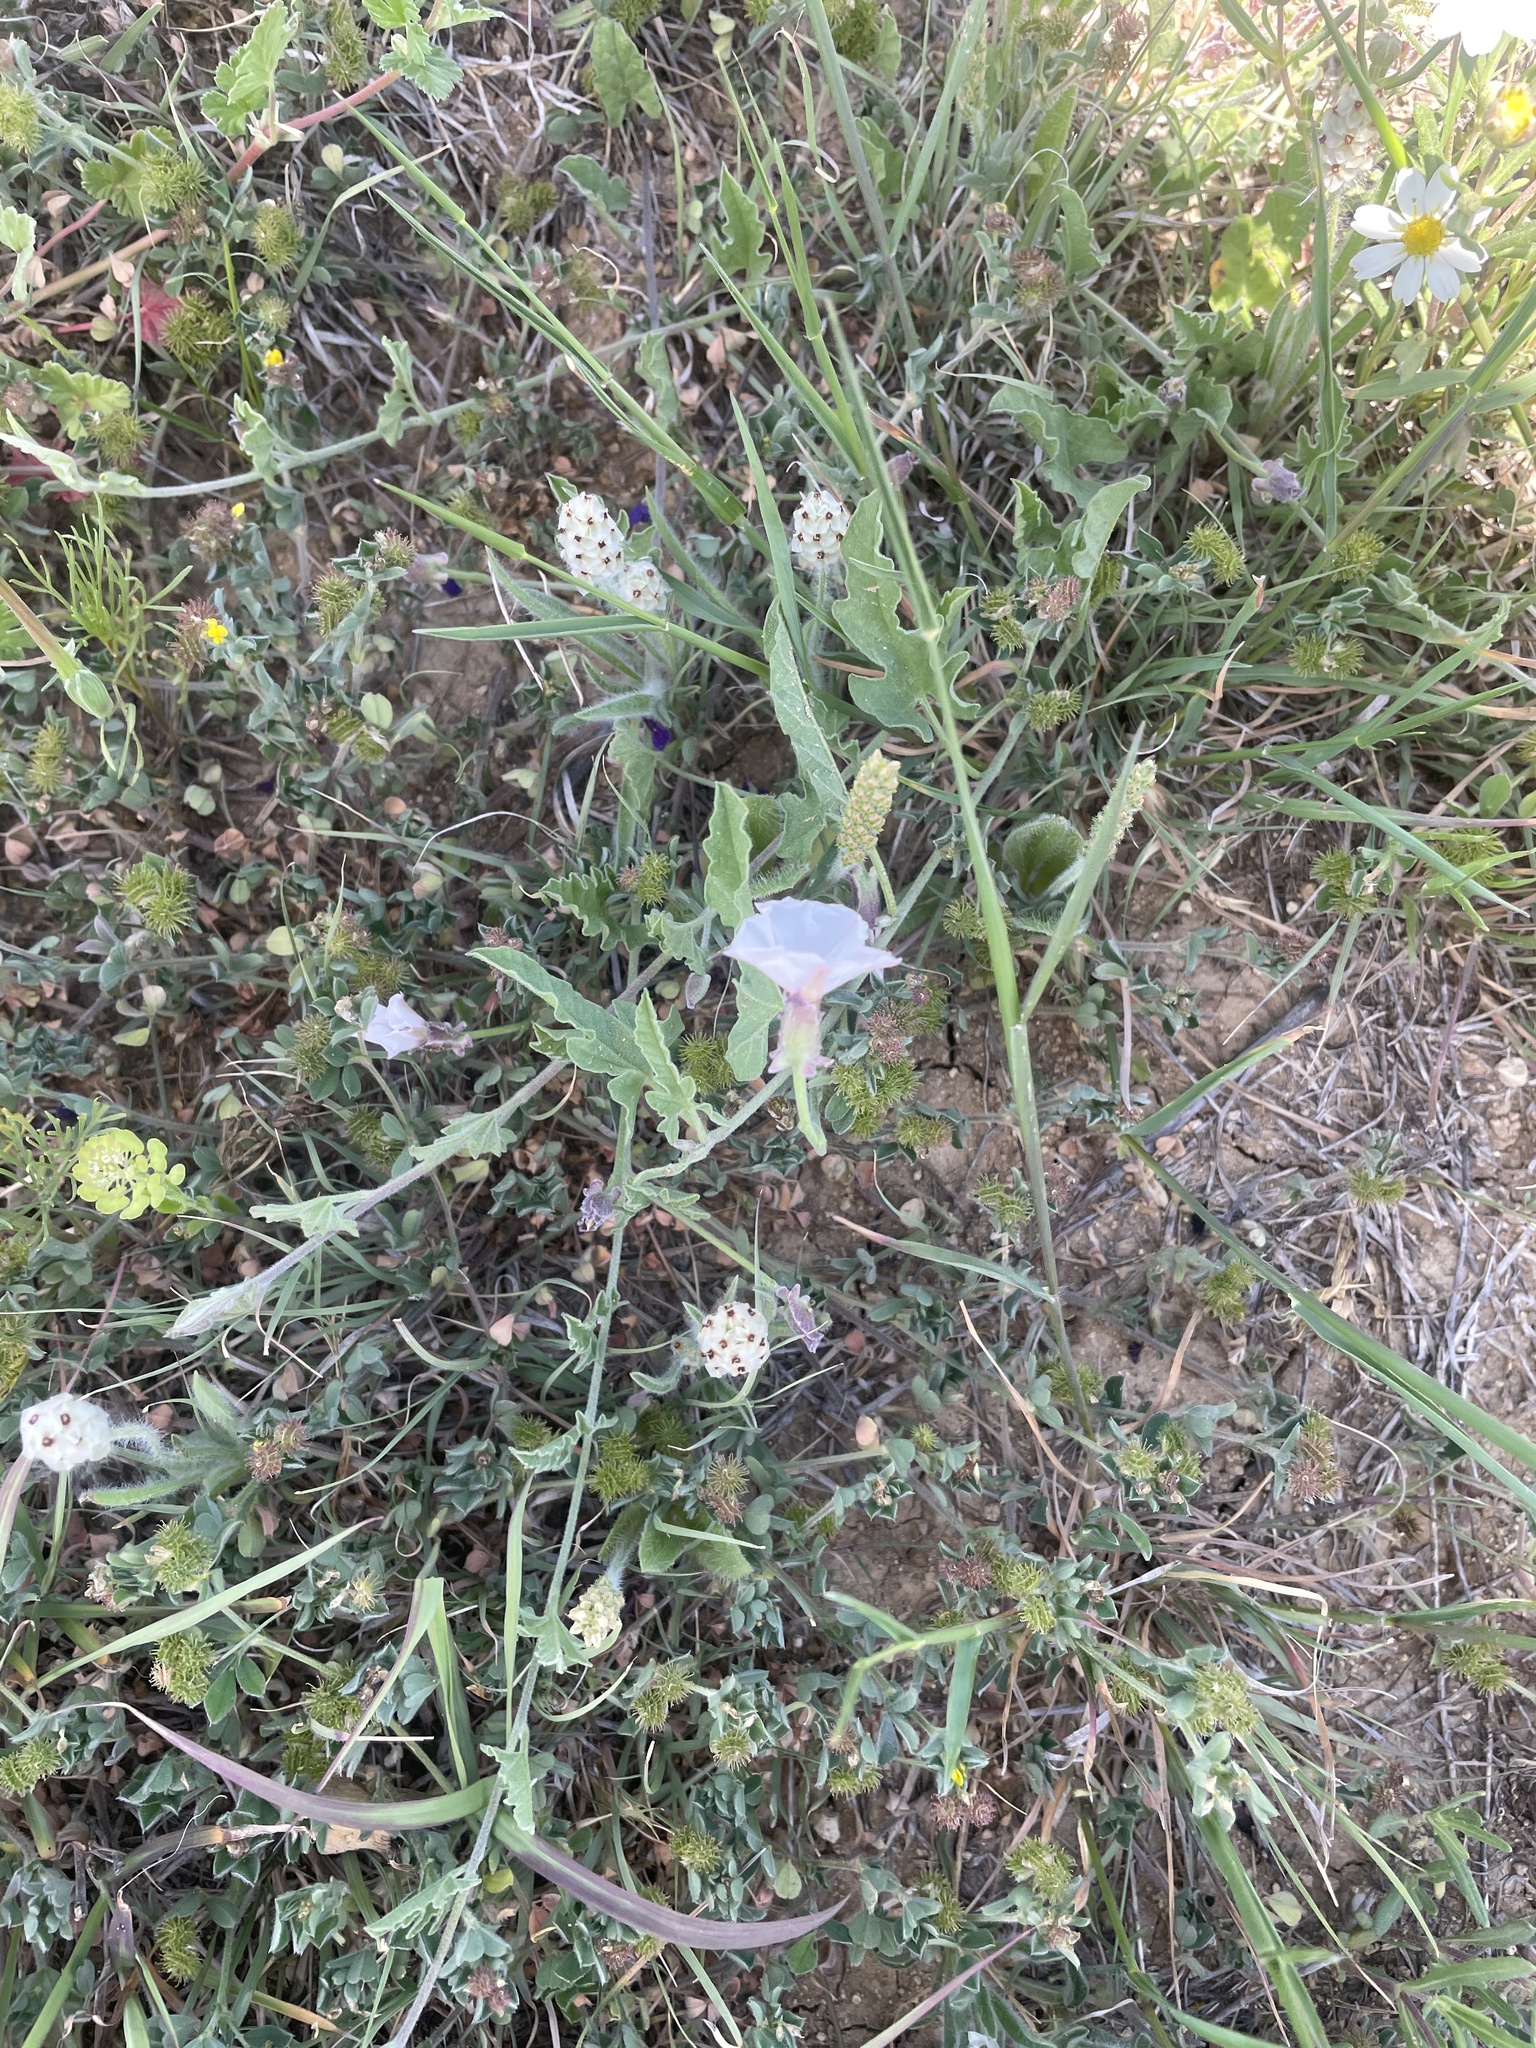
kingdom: Plantae
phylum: Tracheophyta
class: Magnoliopsida
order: Solanales
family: Convolvulaceae
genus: Convolvulus
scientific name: Convolvulus equitans
